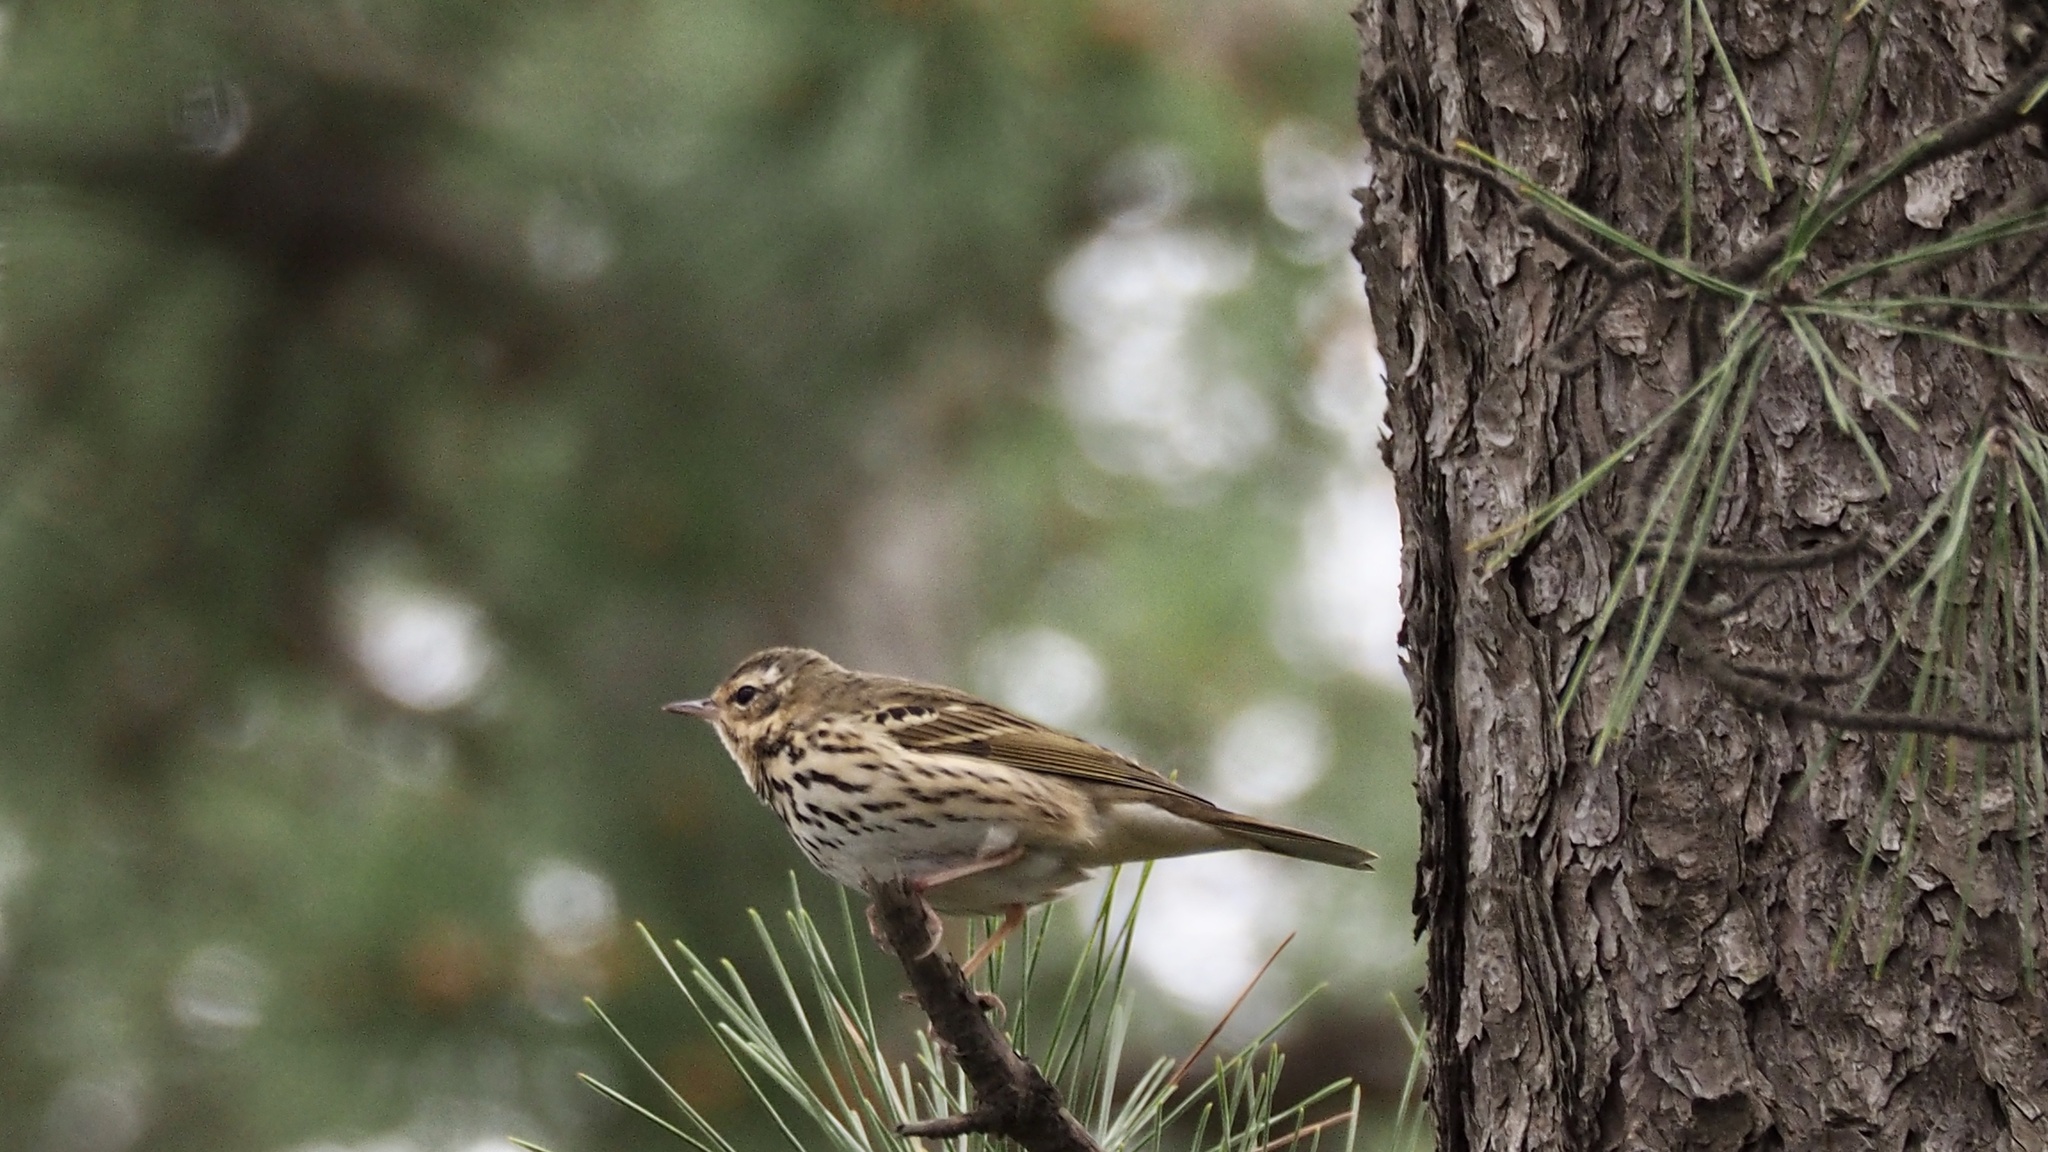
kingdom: Animalia
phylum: Chordata
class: Aves
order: Passeriformes
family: Motacillidae
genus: Anthus
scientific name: Anthus hodgsoni
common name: Olive-backed pipit
